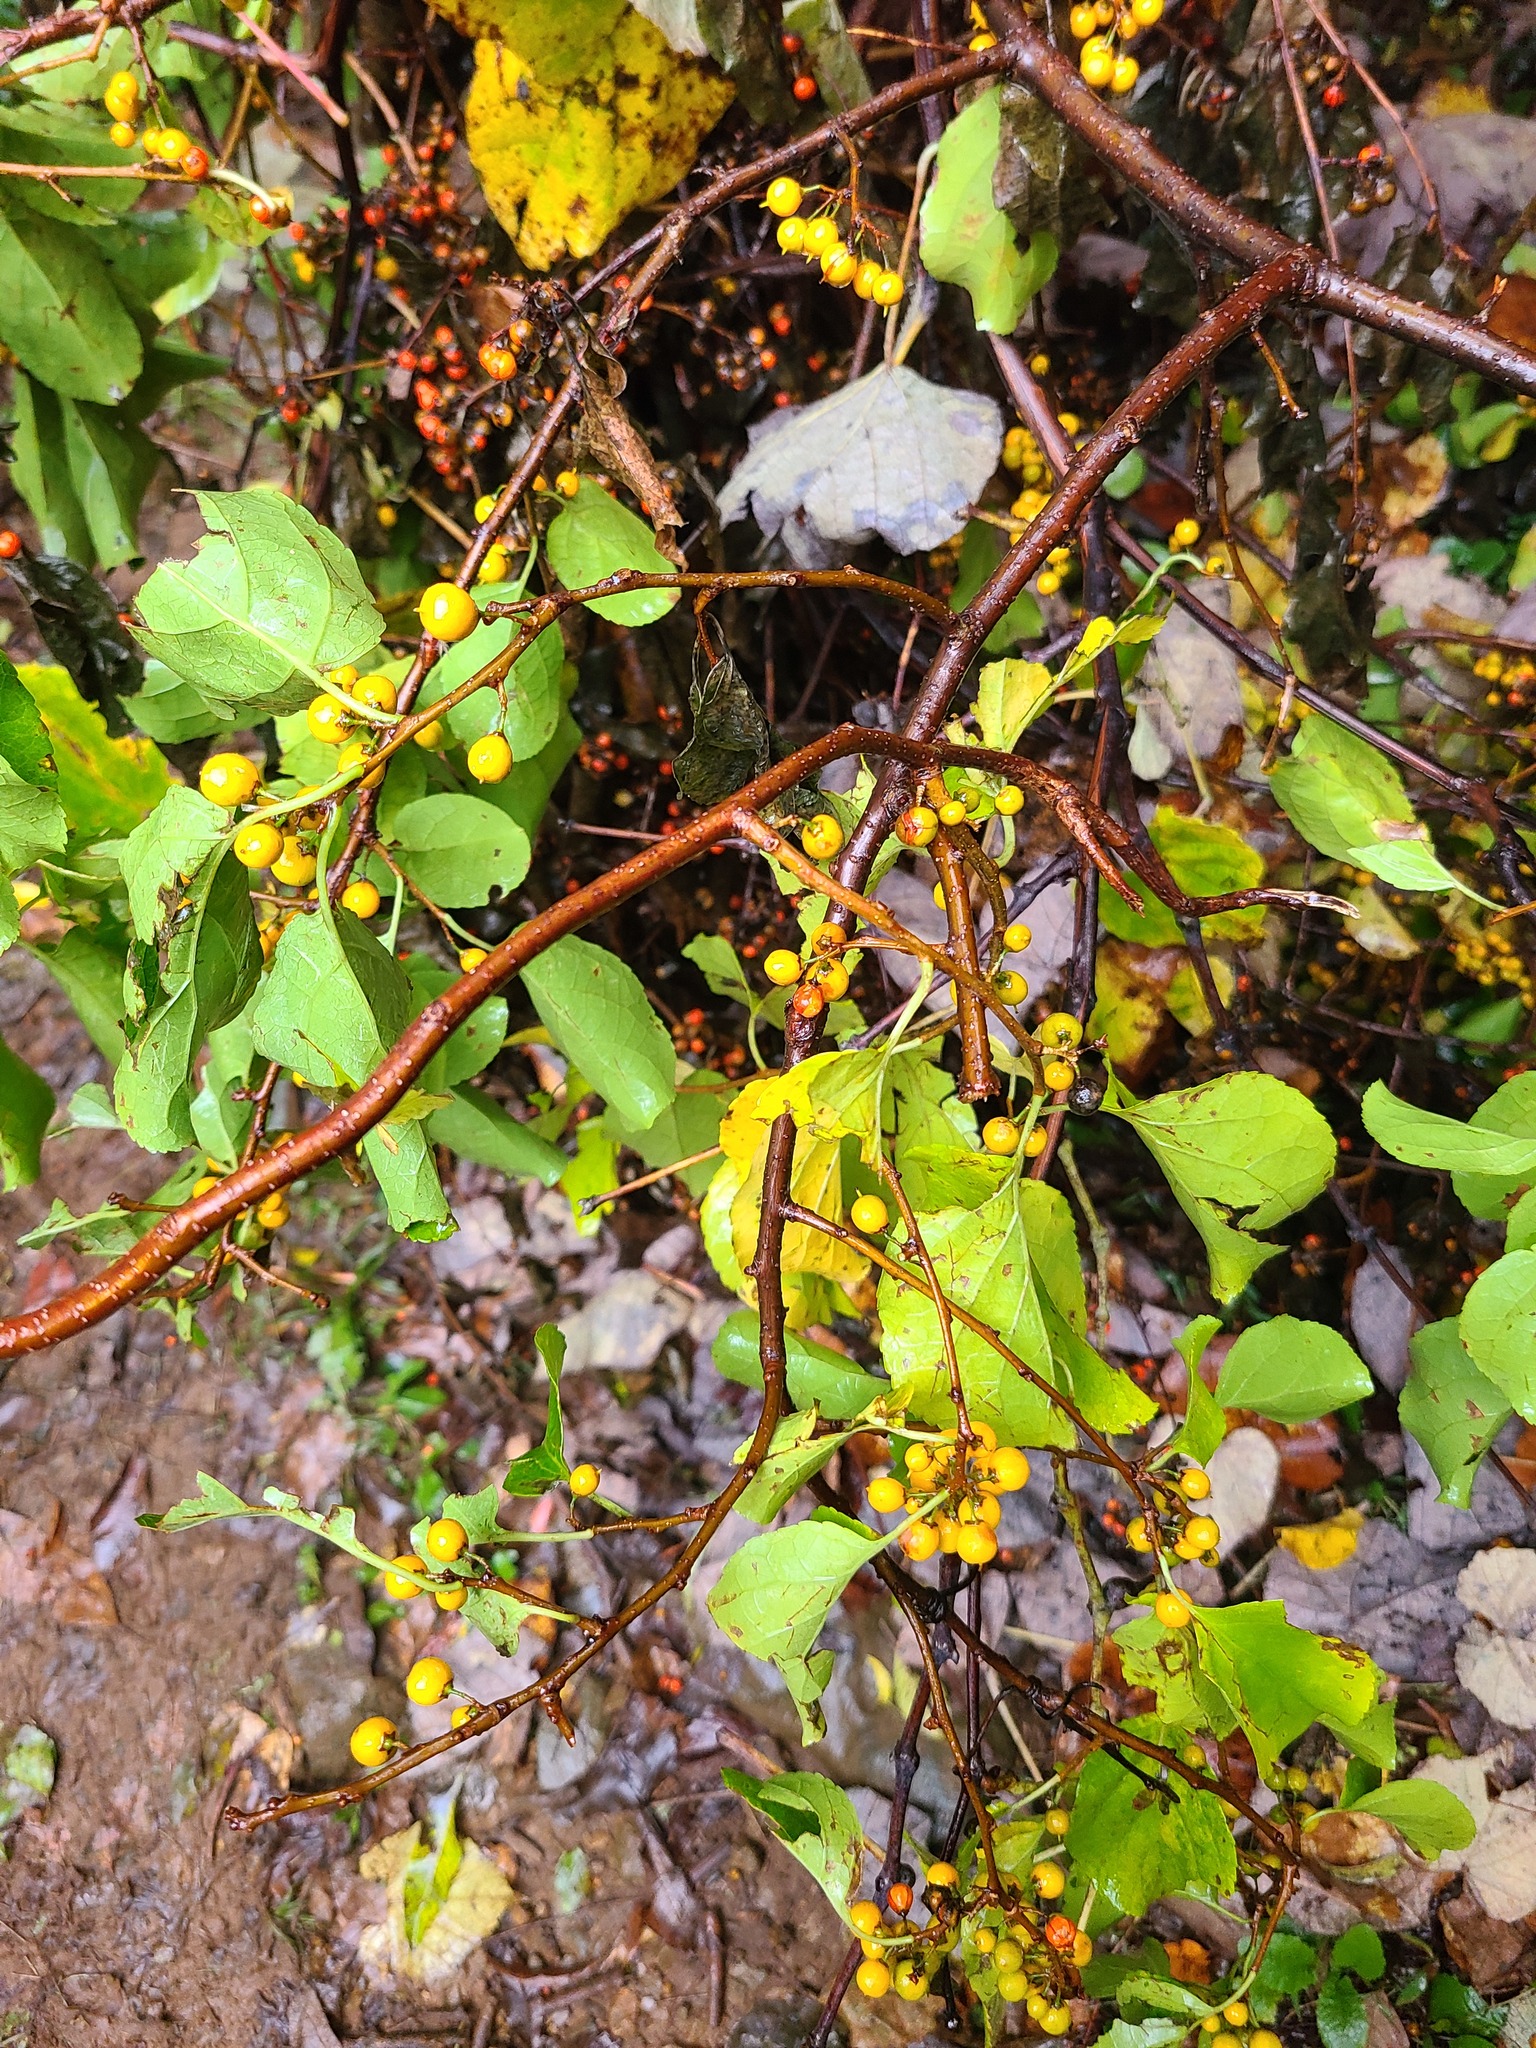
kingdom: Plantae
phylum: Tracheophyta
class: Magnoliopsida
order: Celastrales
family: Celastraceae
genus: Celastrus
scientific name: Celastrus orbiculatus
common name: Oriental bittersweet
